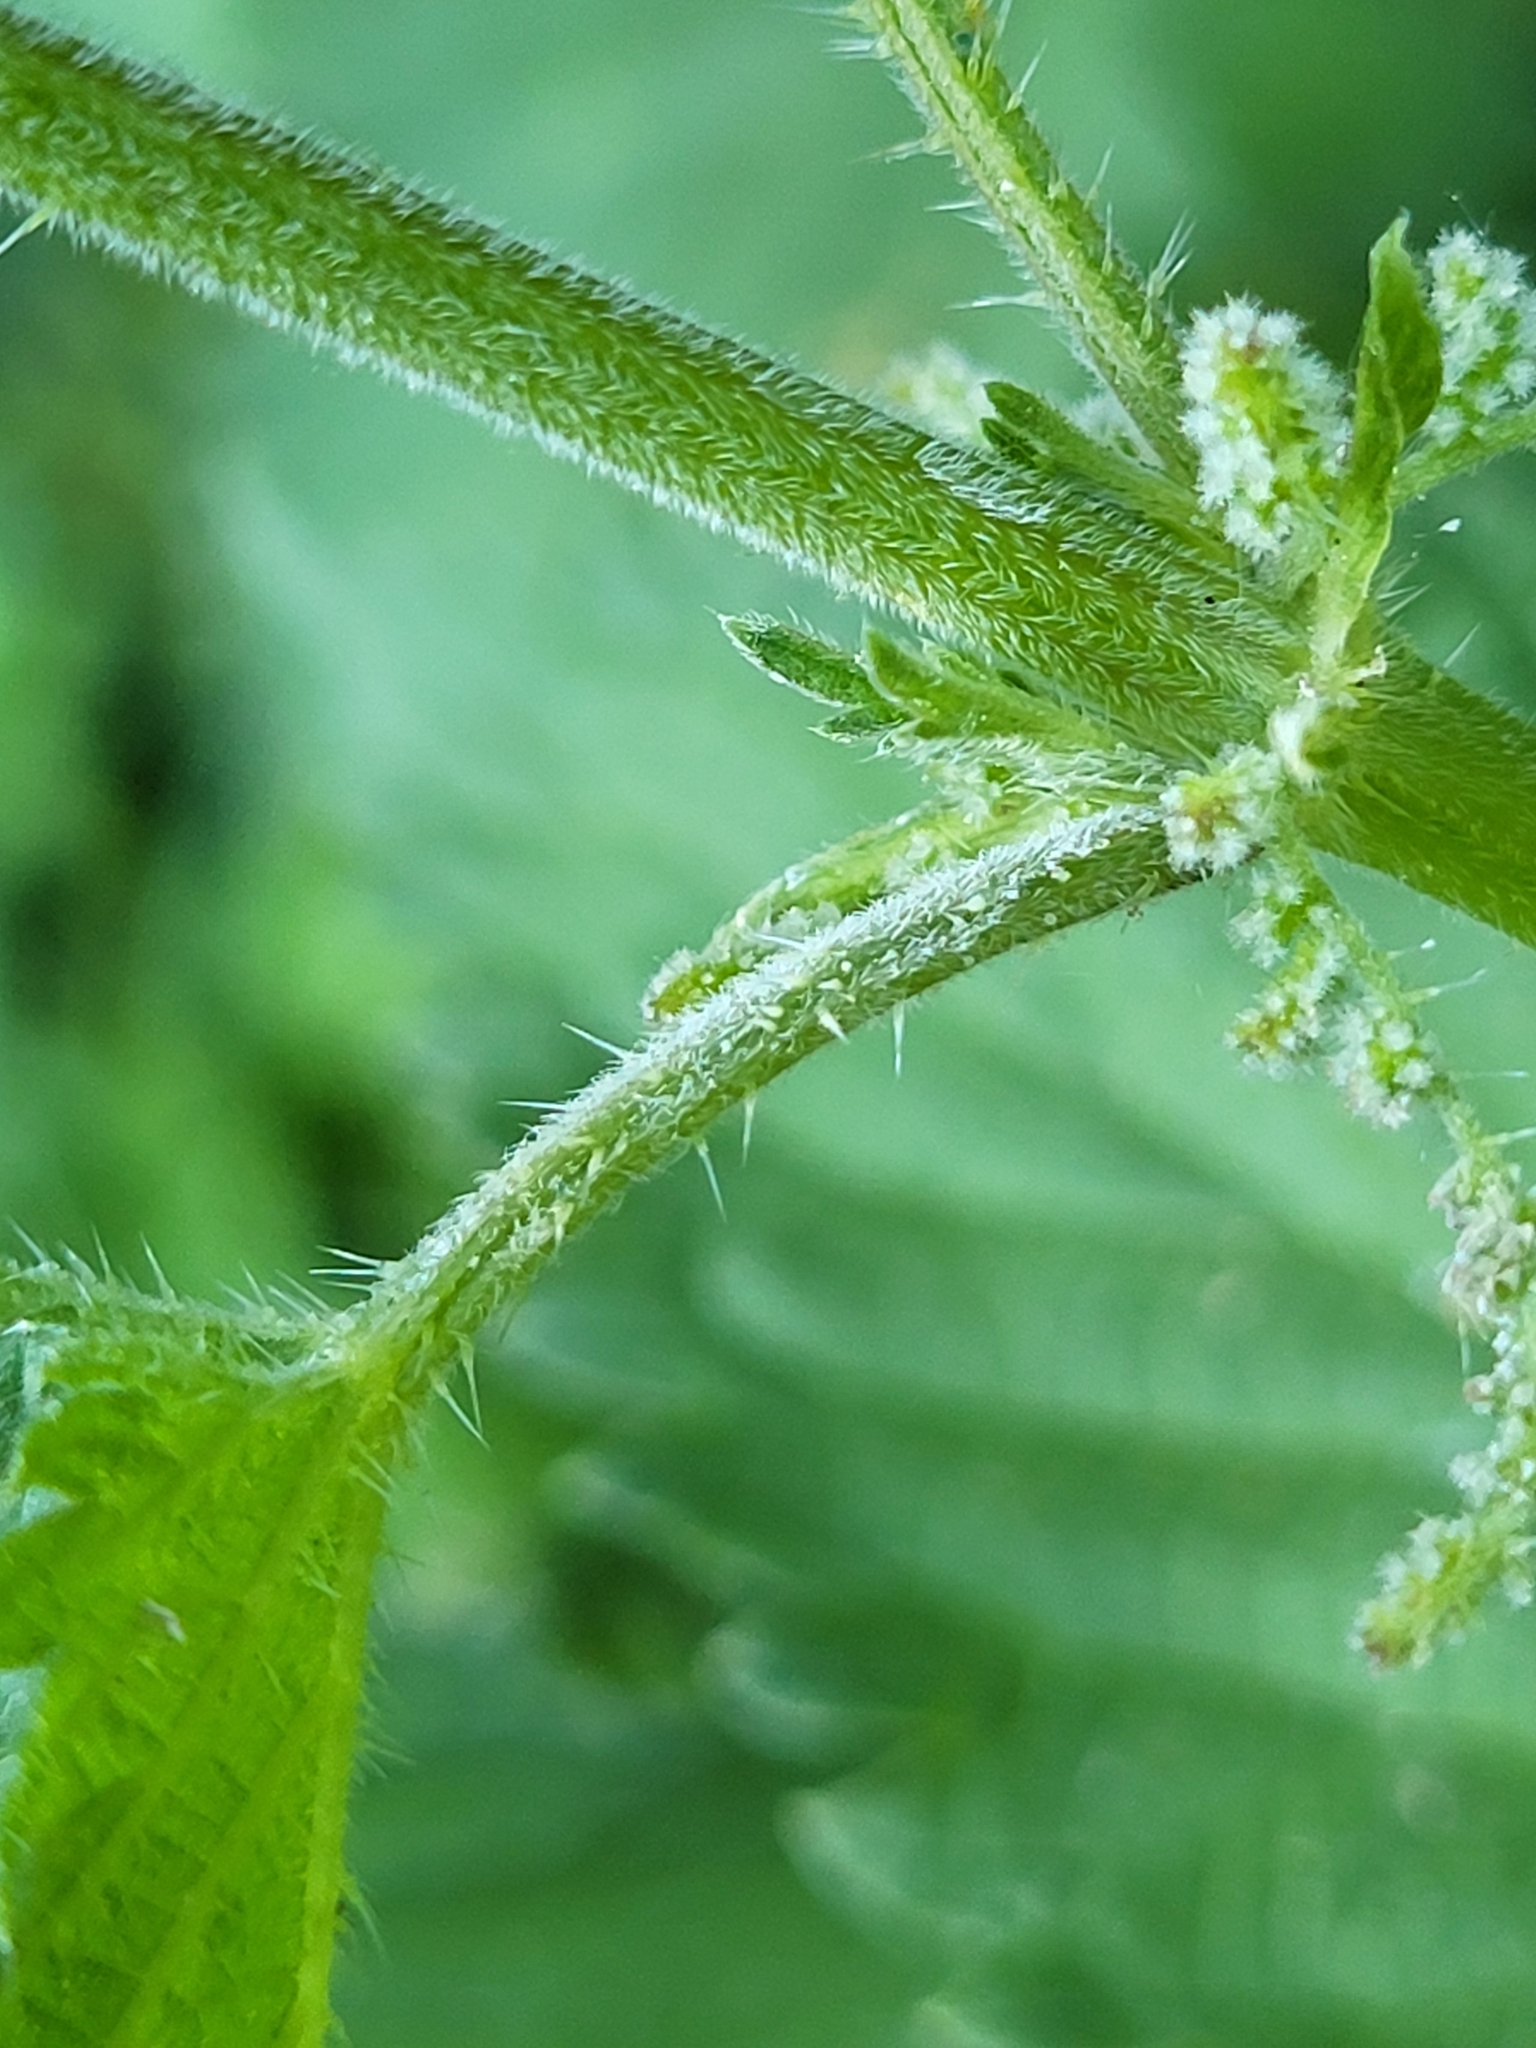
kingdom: Plantae
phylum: Tracheophyta
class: Magnoliopsida
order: Rosales
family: Urticaceae
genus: Urtica
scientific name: Urtica dioica
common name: Common nettle
